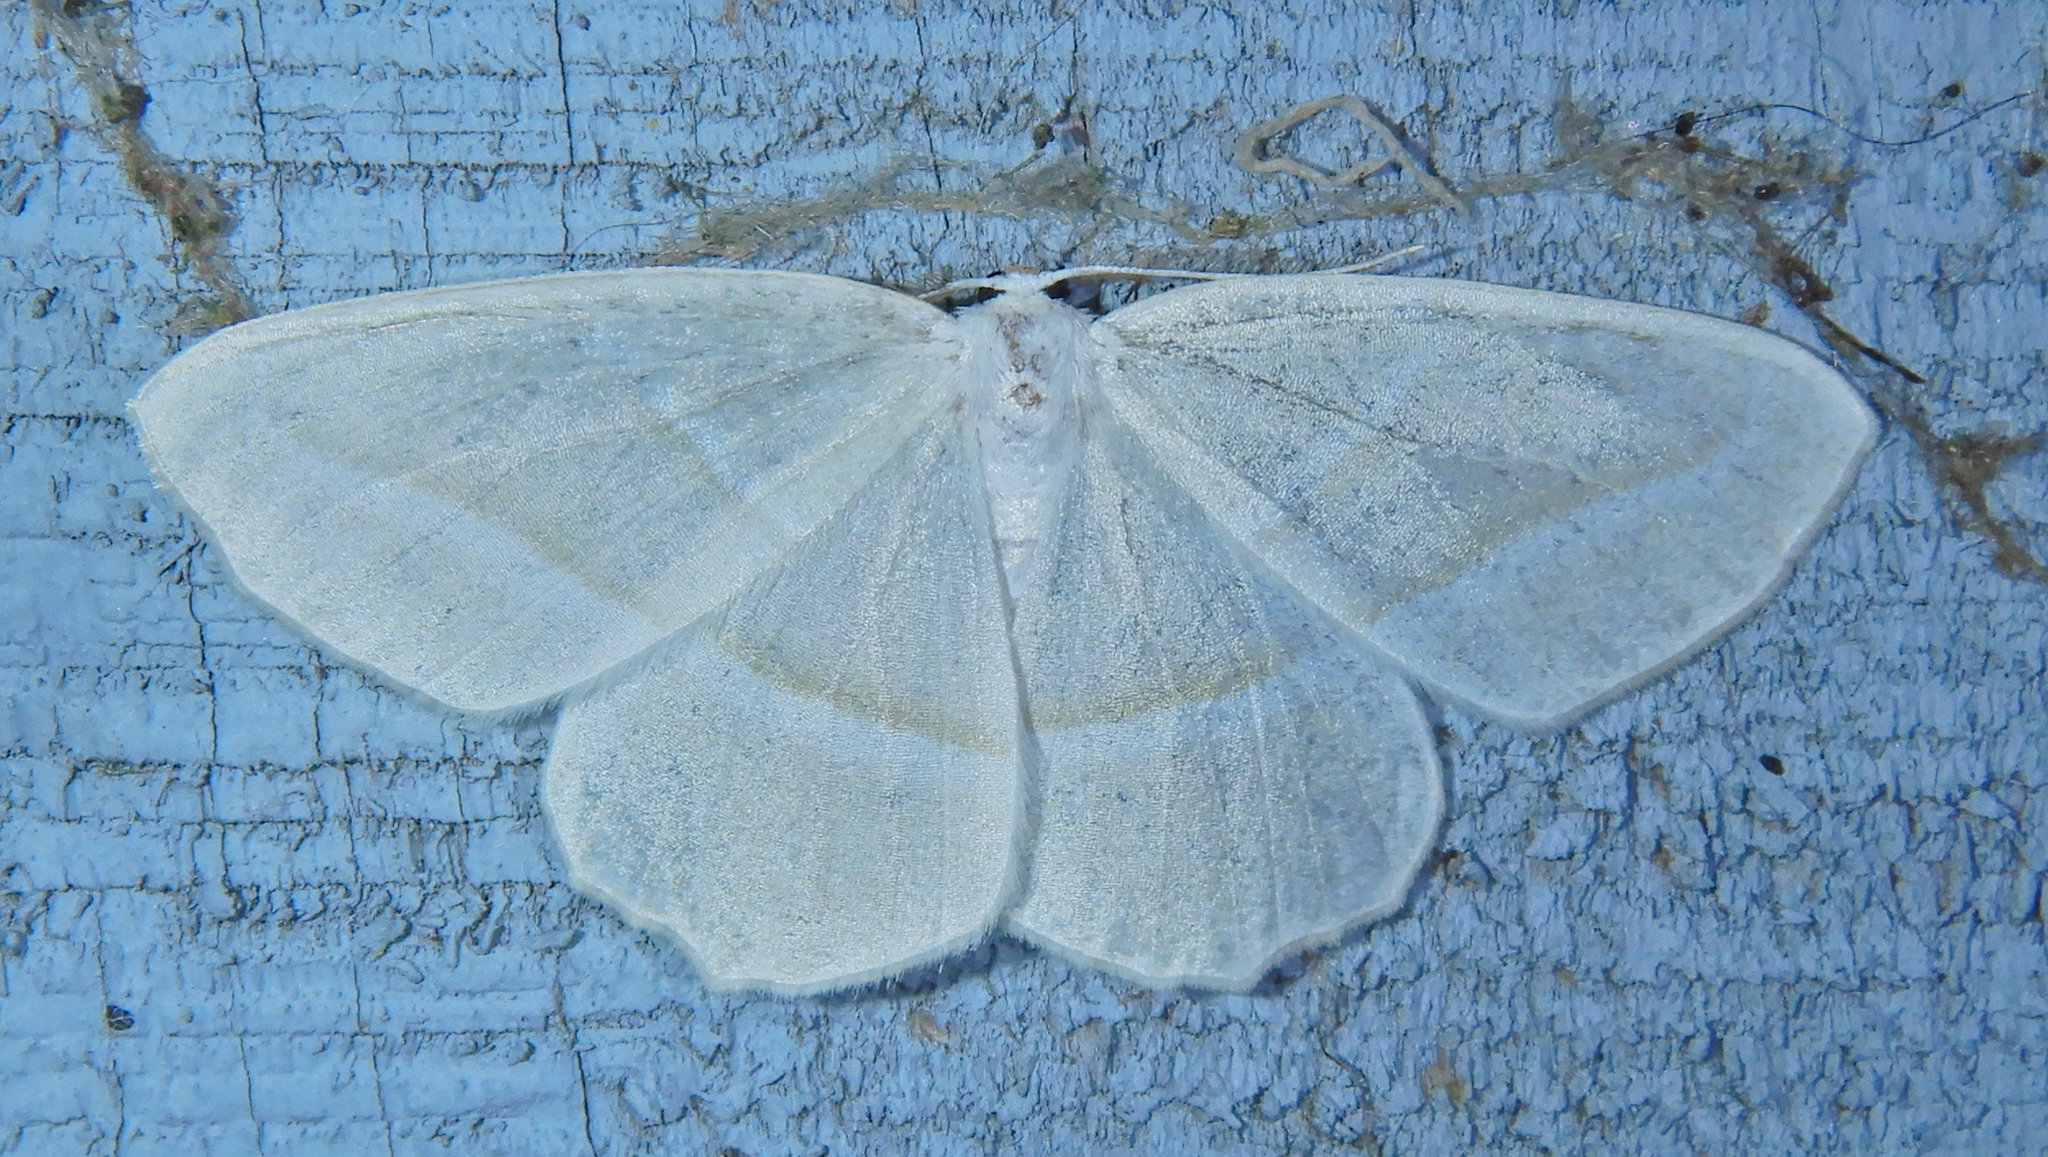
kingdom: Animalia
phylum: Arthropoda
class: Insecta
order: Lepidoptera
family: Geometridae
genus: Campaea
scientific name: Campaea perlata
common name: Fringed looper
